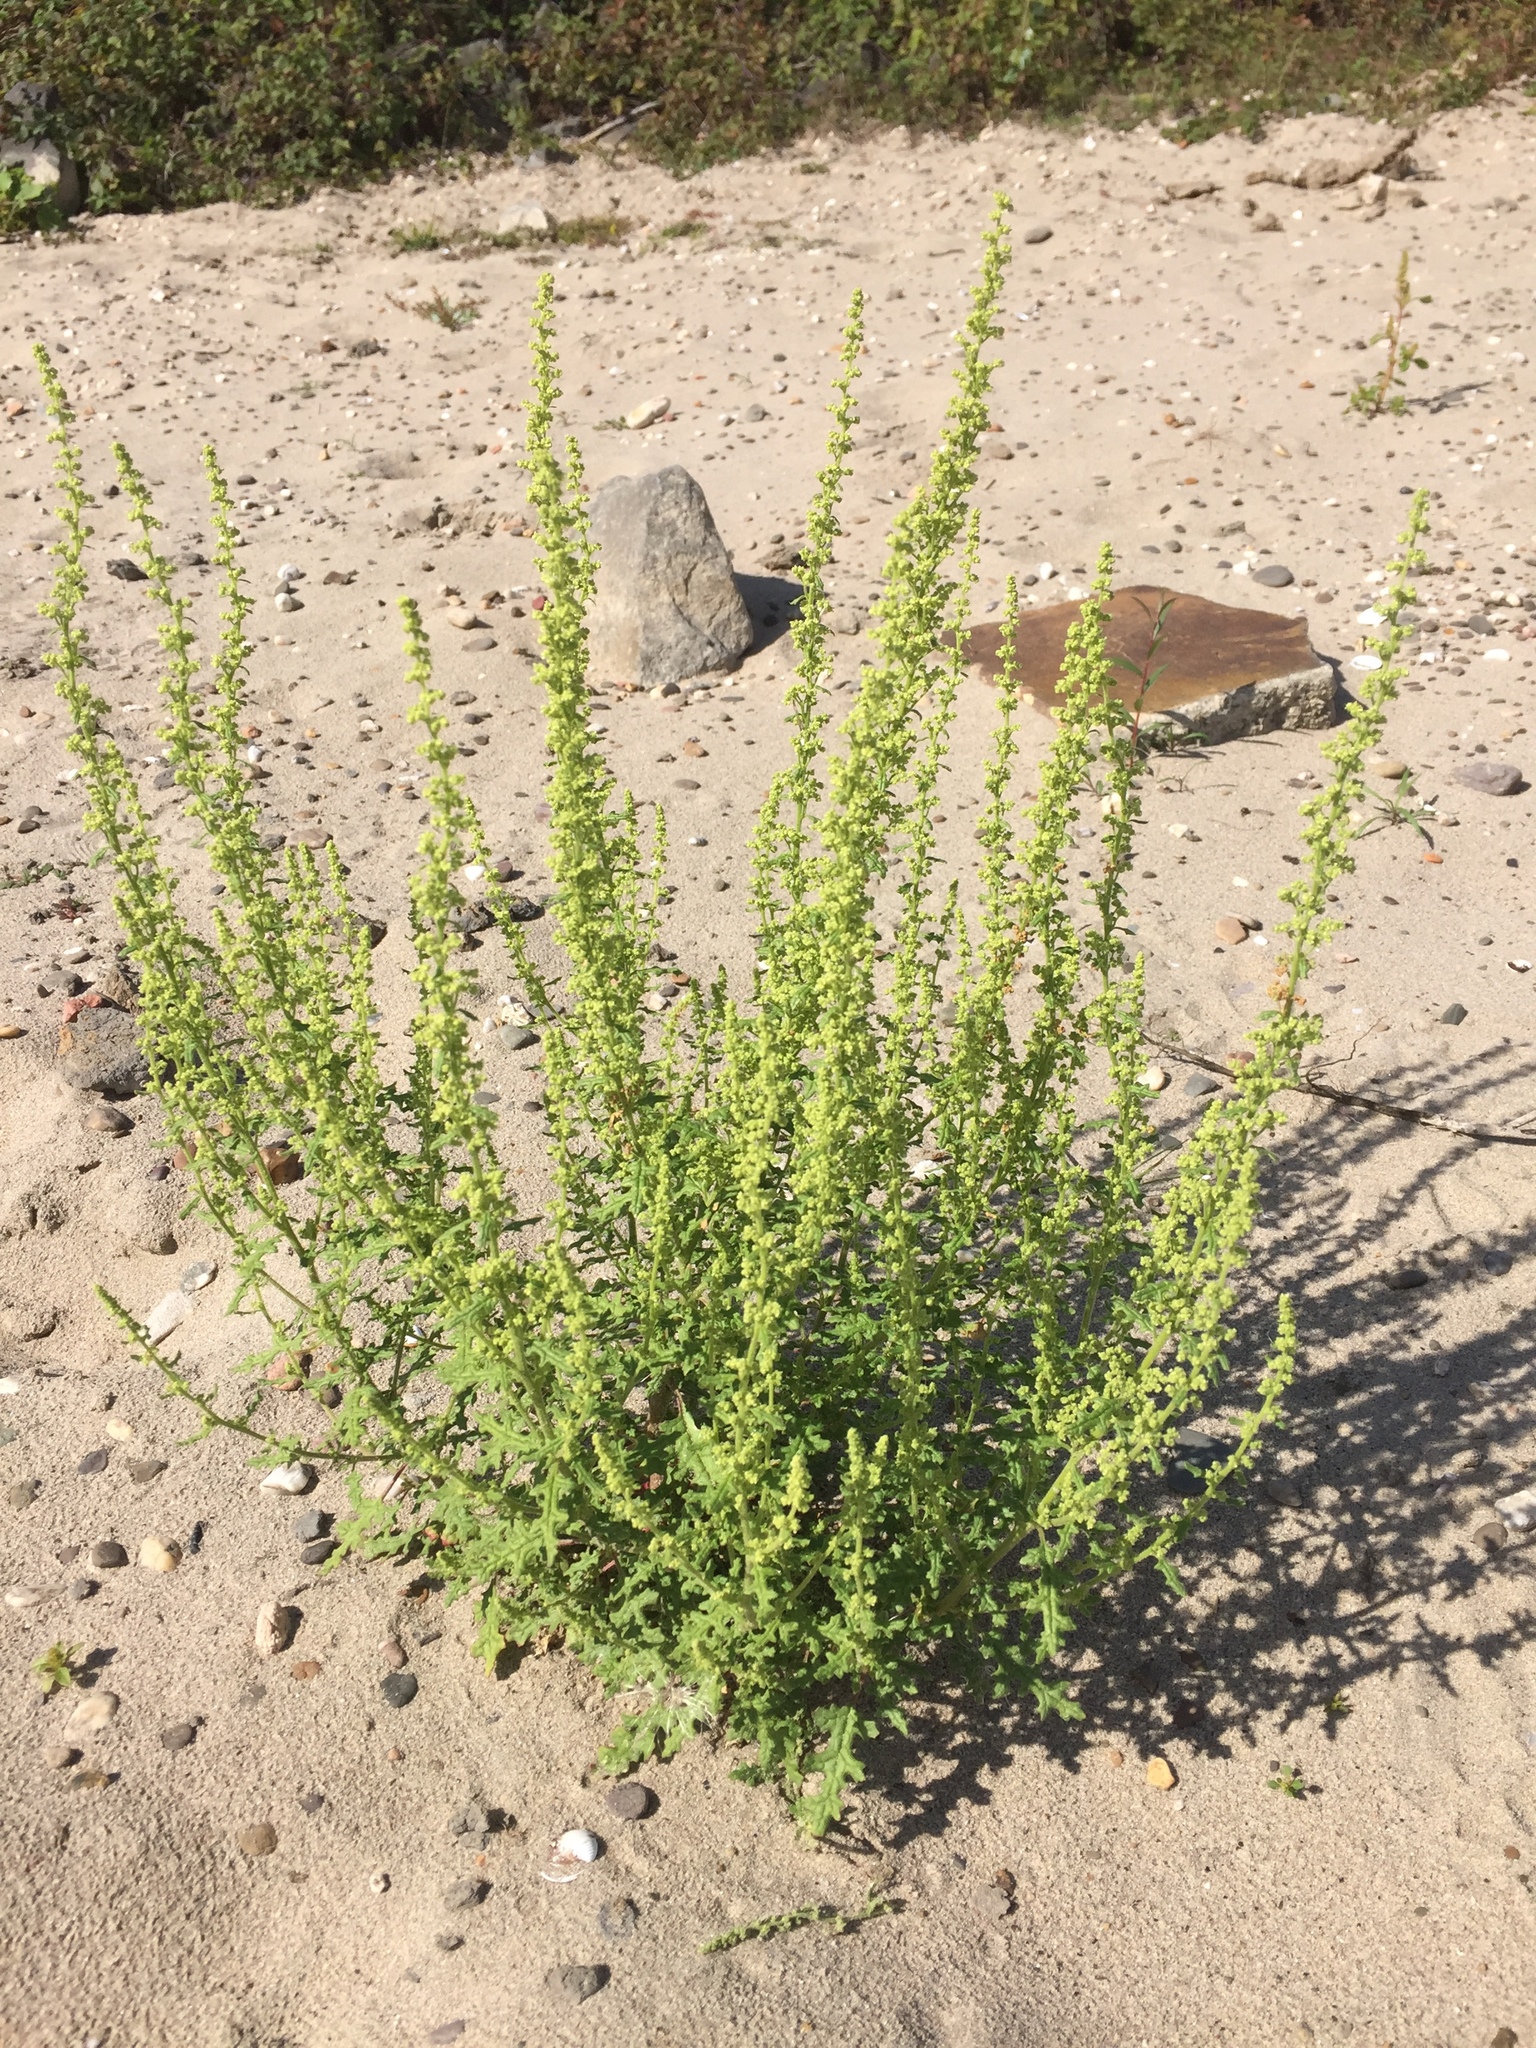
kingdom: Plantae
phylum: Tracheophyta
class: Magnoliopsida
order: Caryophyllales
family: Amaranthaceae
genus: Dysphania
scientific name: Dysphania botrys
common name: Feather-geranium
